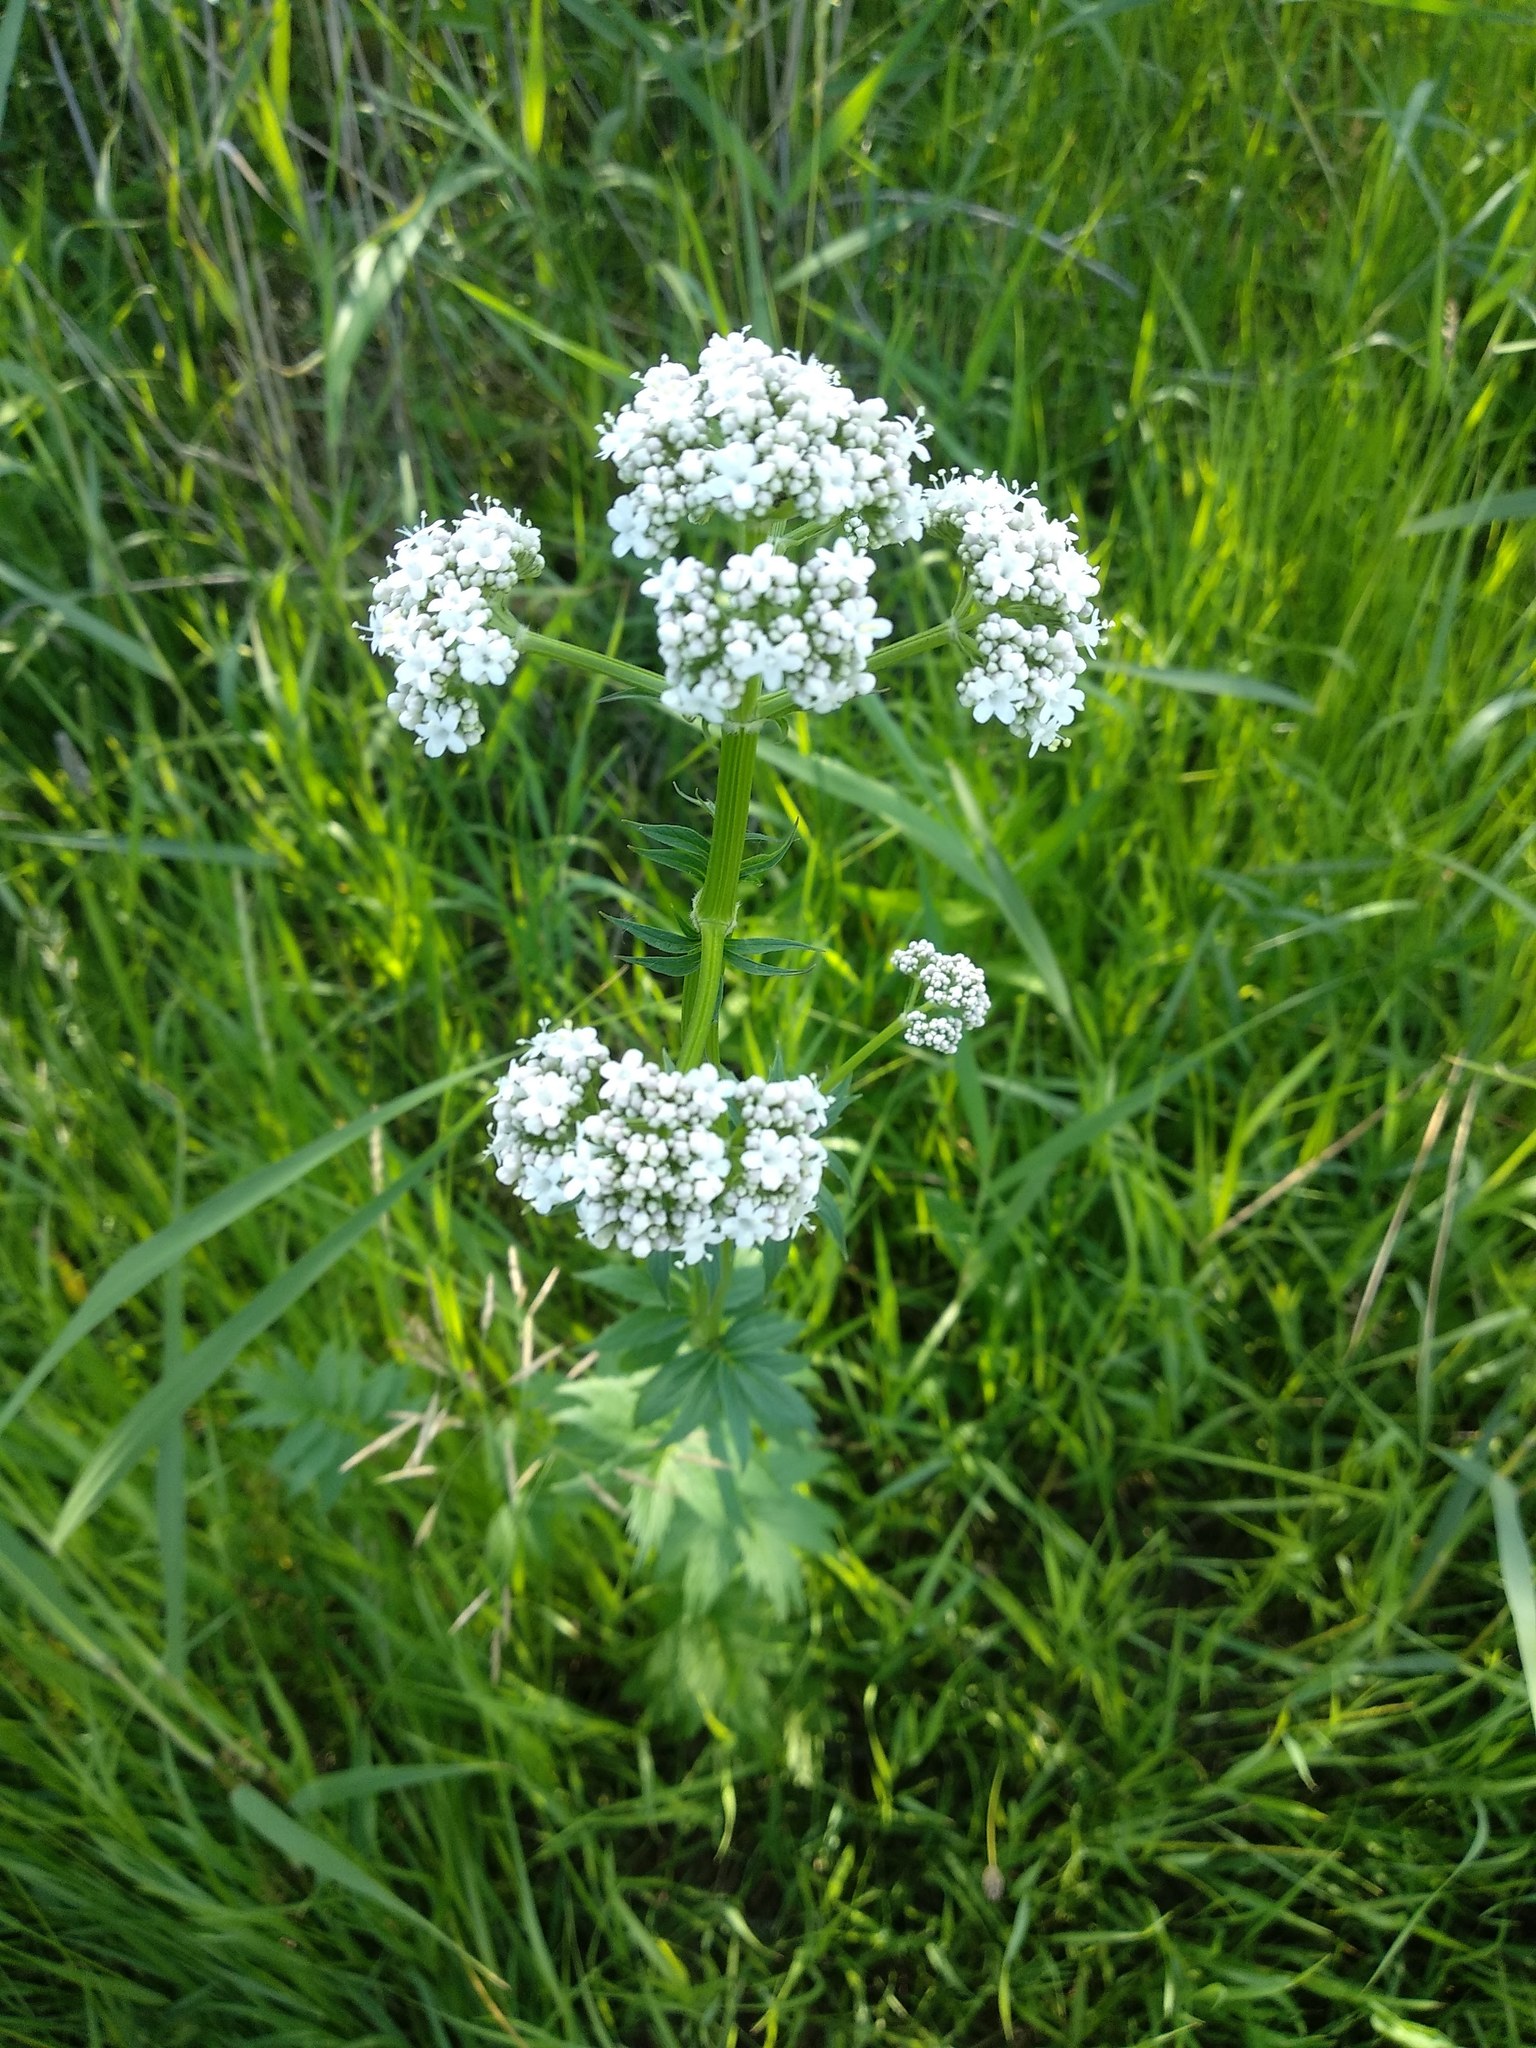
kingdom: Plantae
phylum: Tracheophyta
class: Magnoliopsida
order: Dipsacales
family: Caprifoliaceae
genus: Valeriana
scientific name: Valeriana officinalis
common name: Common valerian
